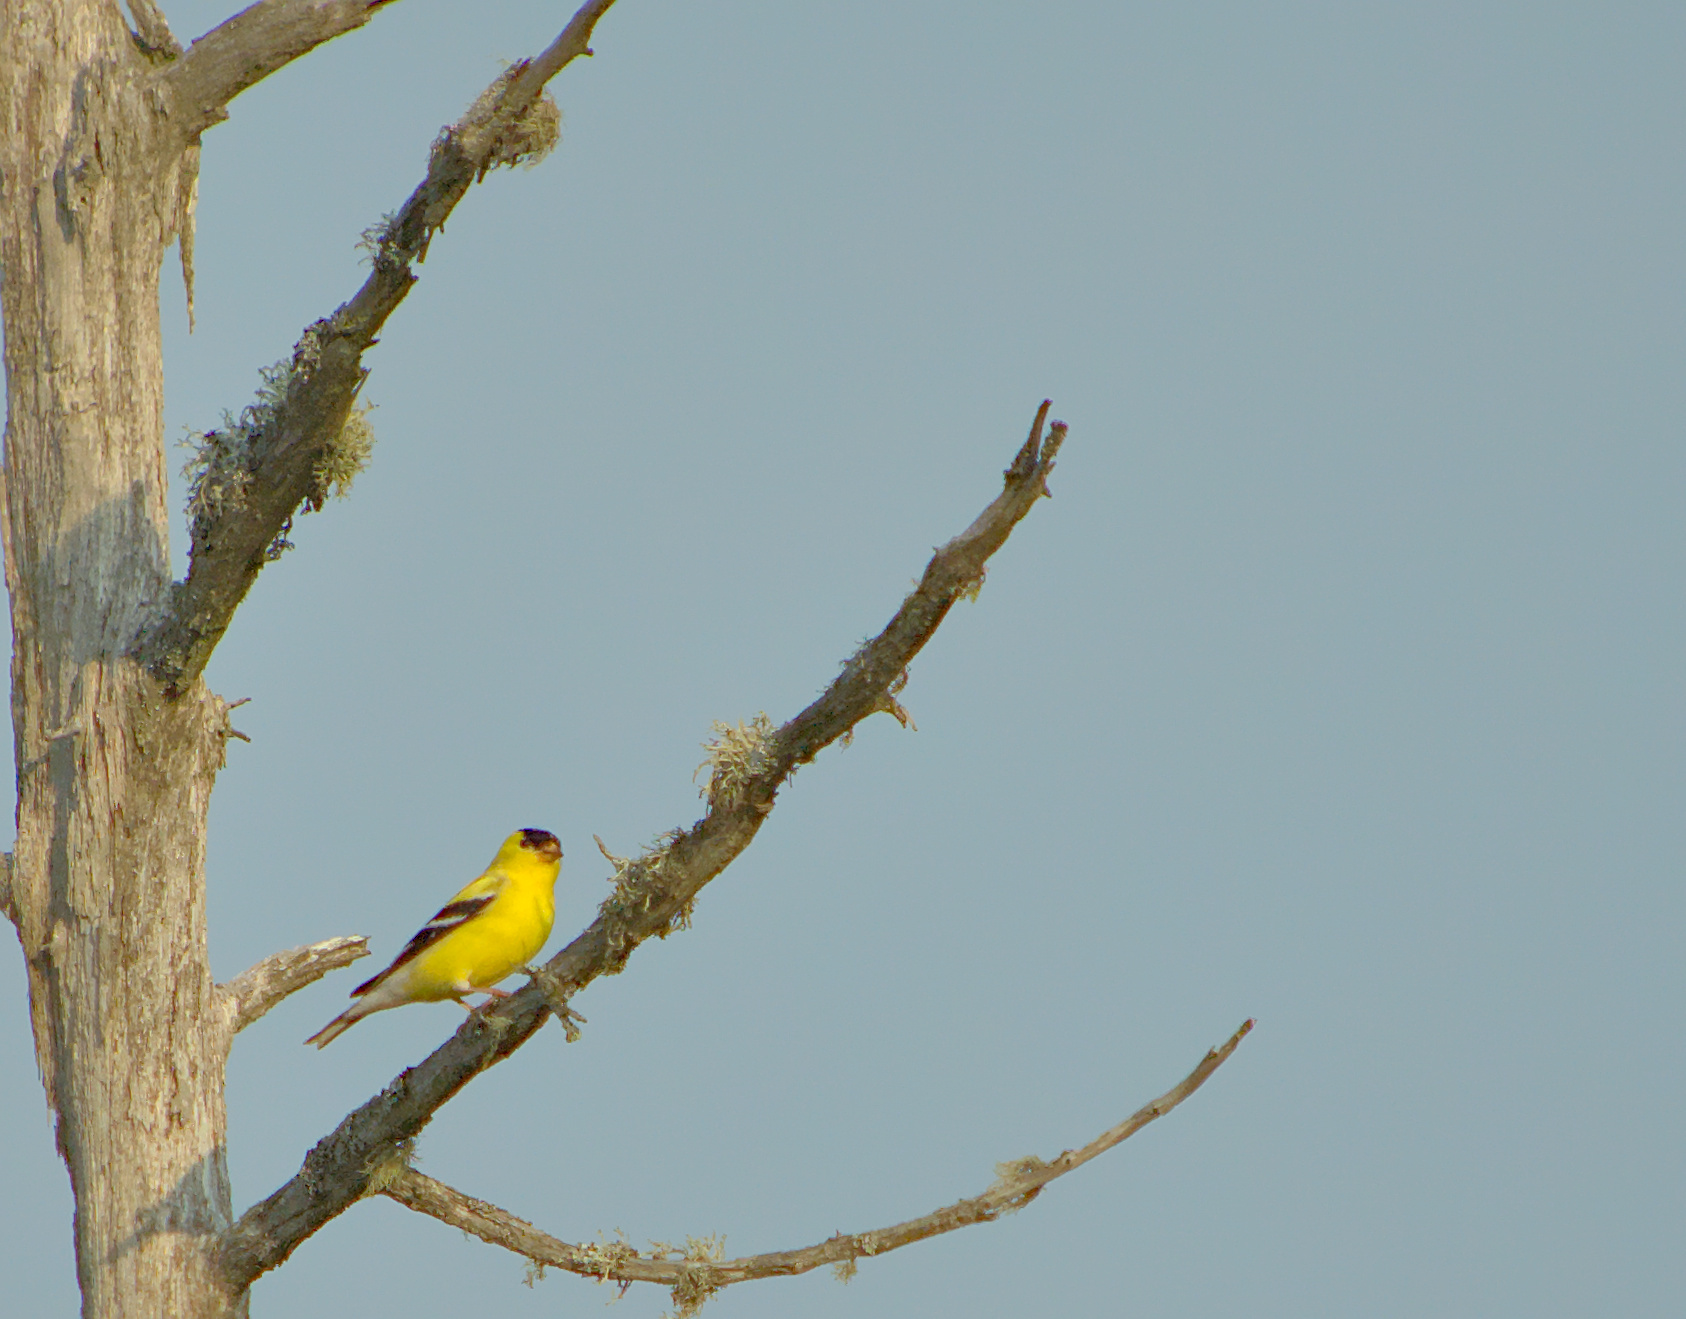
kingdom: Animalia
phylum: Chordata
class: Aves
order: Passeriformes
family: Fringillidae
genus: Spinus
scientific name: Spinus tristis
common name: American goldfinch
